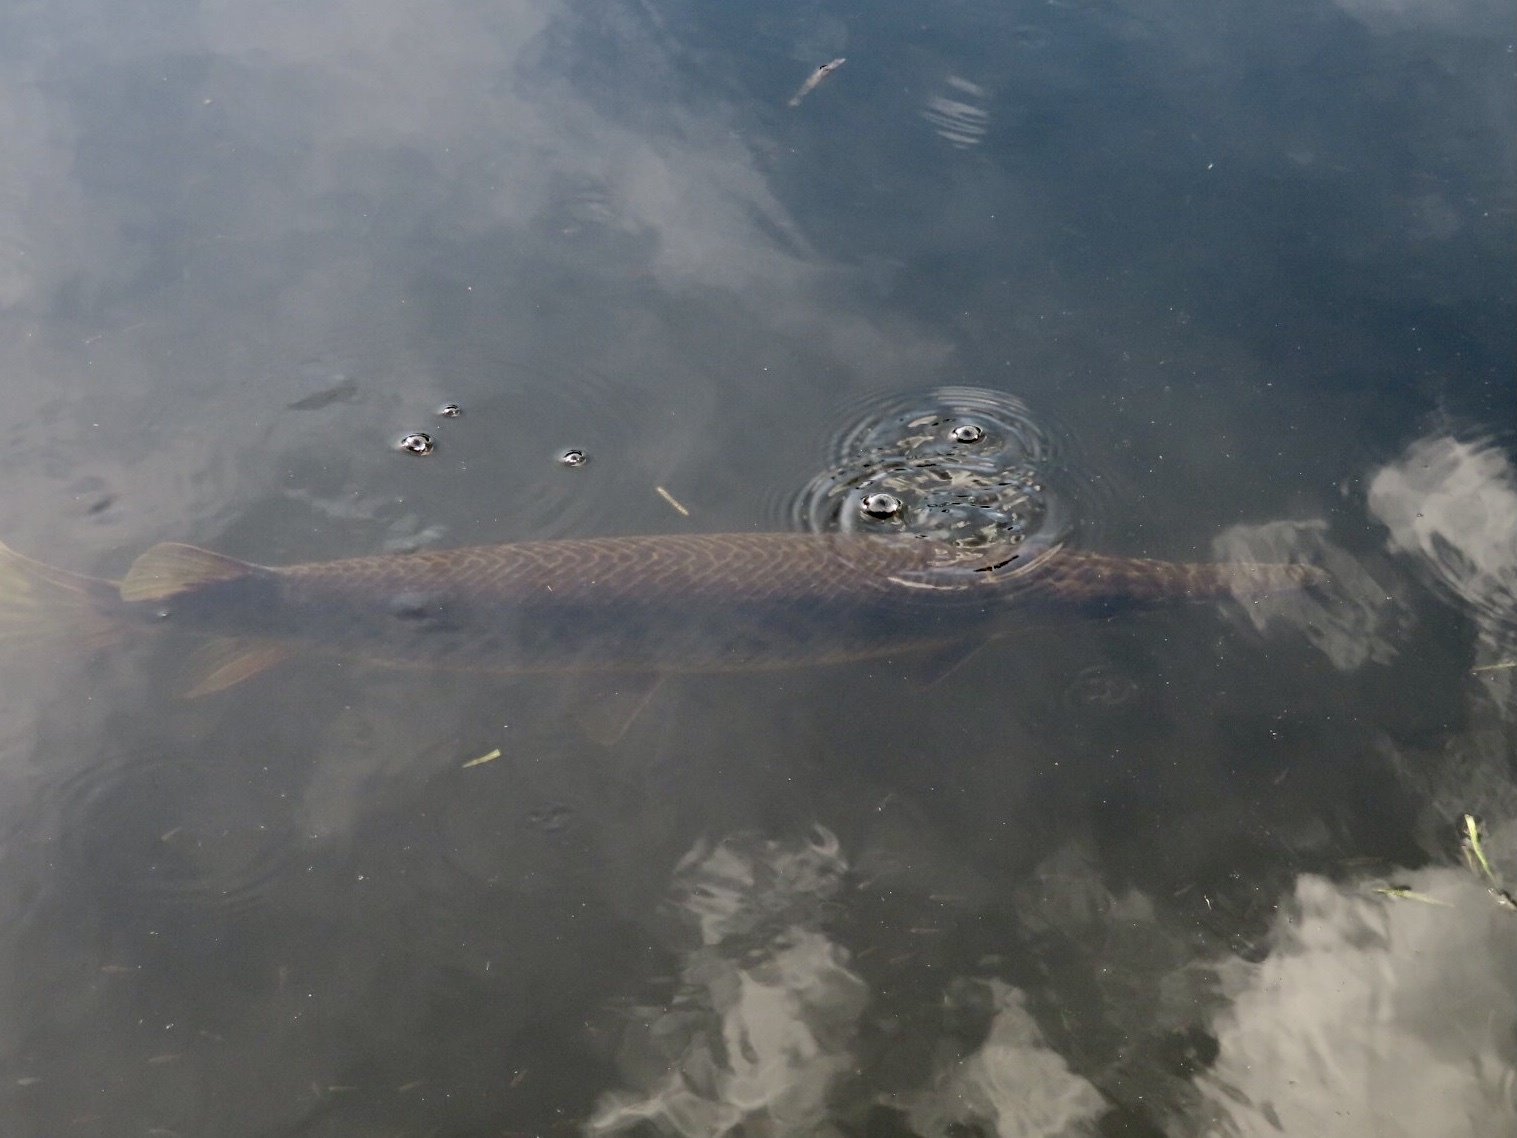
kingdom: Animalia
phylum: Chordata
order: Lepisosteiformes
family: Lepisosteidae
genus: Lepisosteus
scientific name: Lepisosteus platyrhincus
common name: Florida gar
